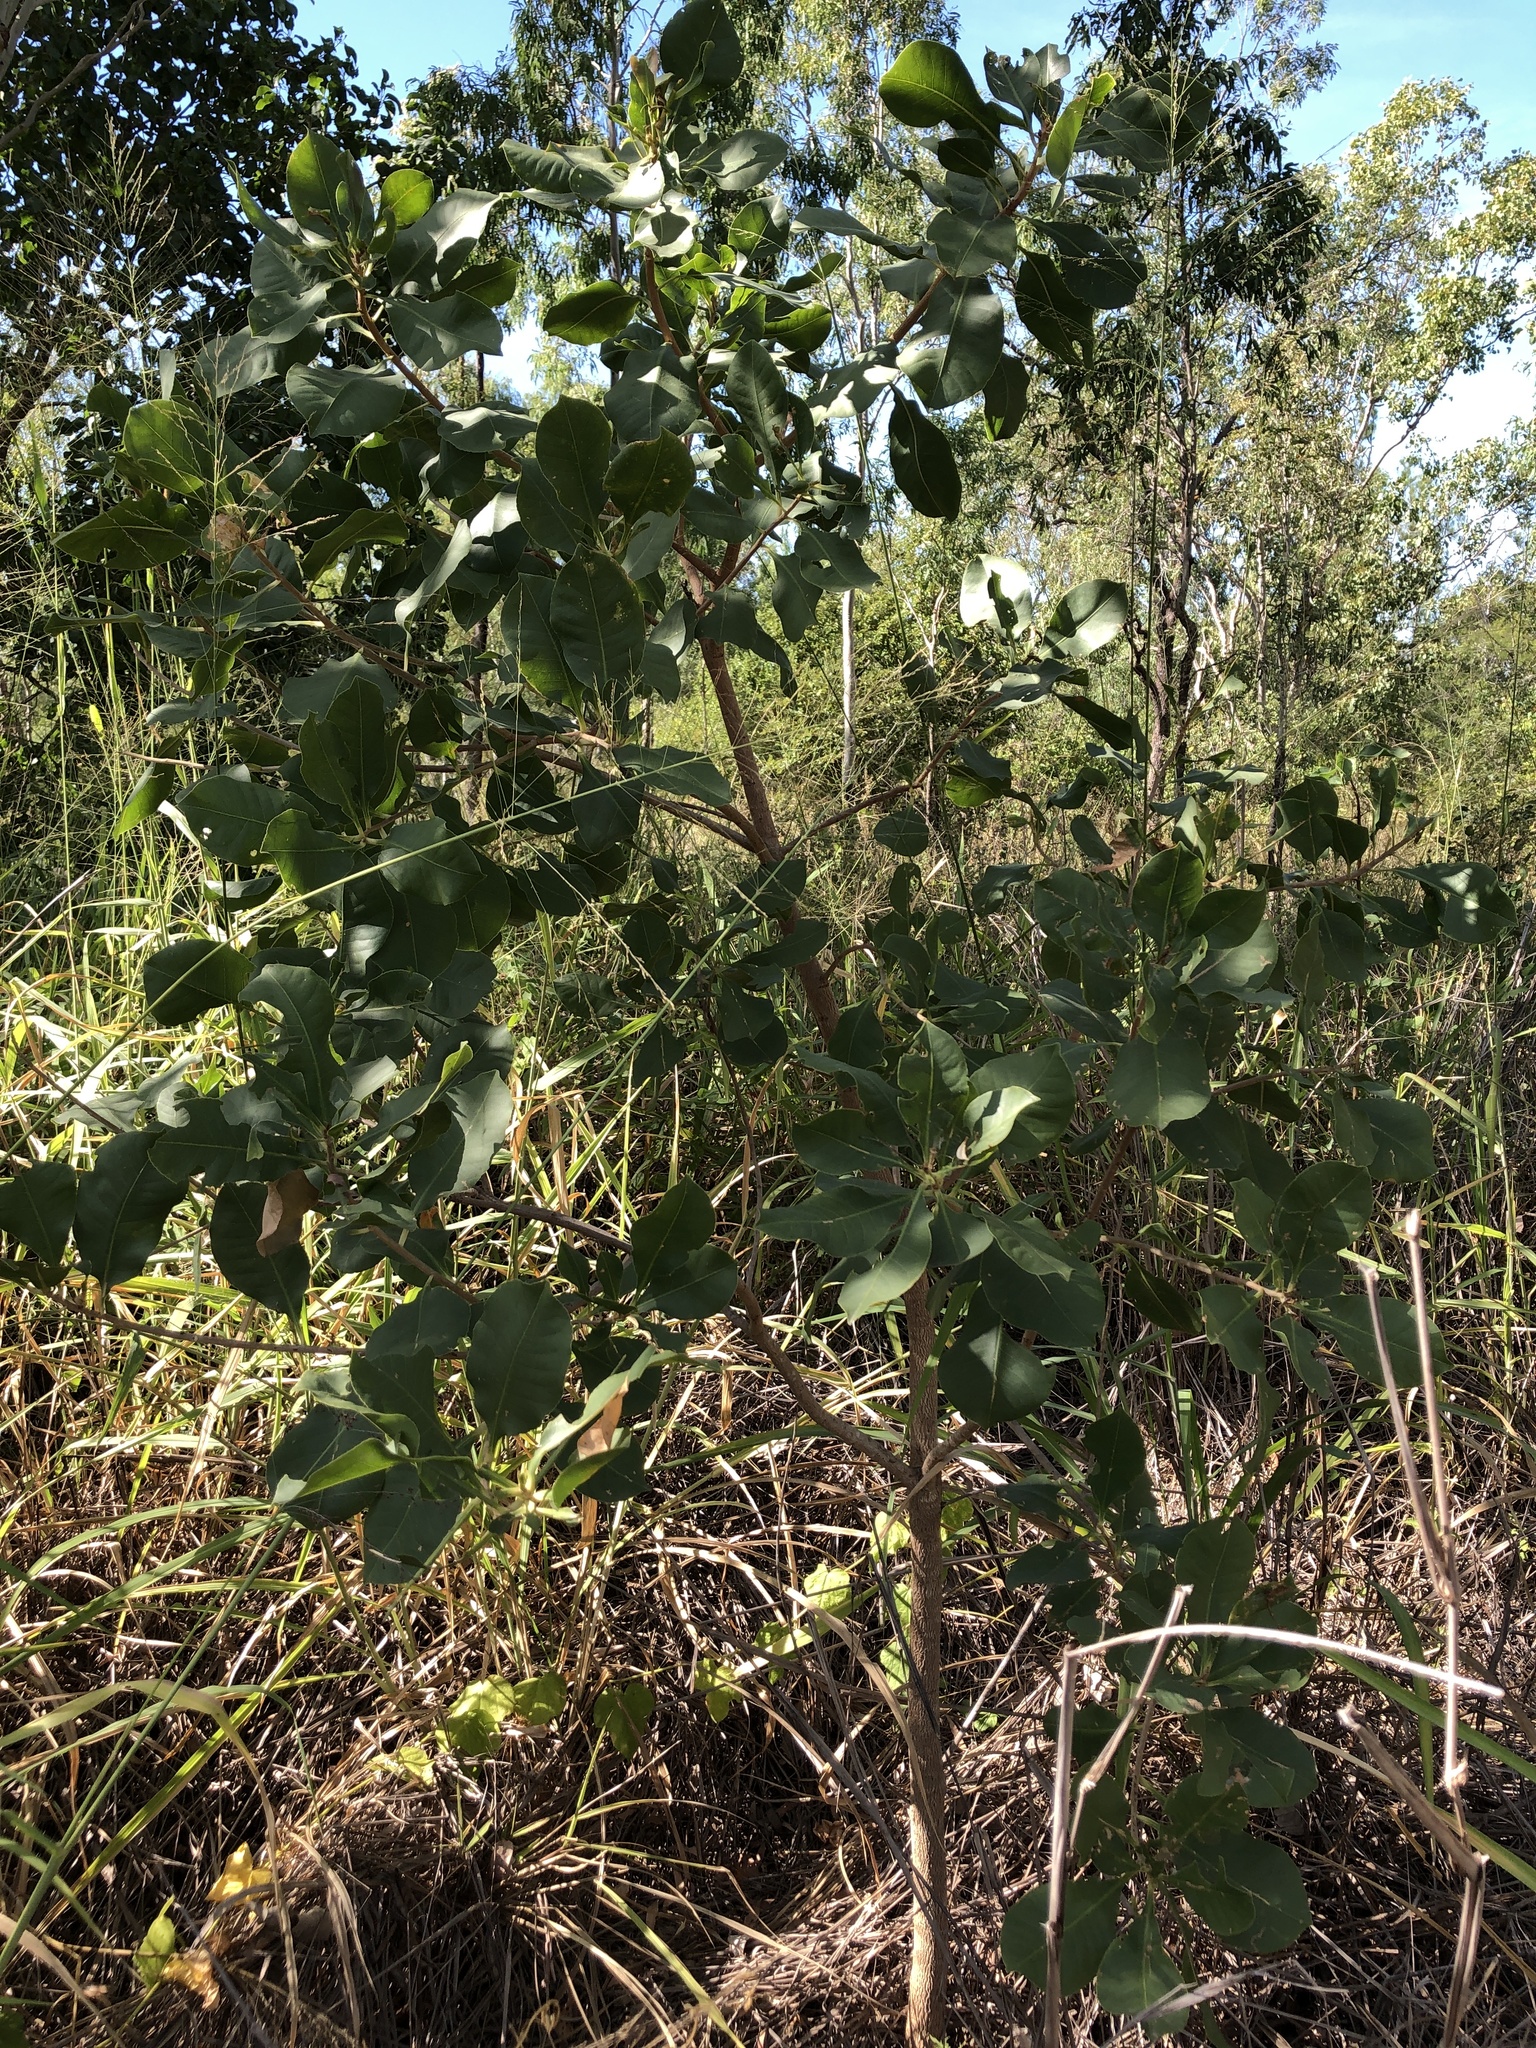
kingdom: Plantae
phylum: Tracheophyta
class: Magnoliopsida
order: Ericales
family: Lecythidaceae
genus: Planchonia
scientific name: Planchonia careya
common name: Cockatoo-apple
